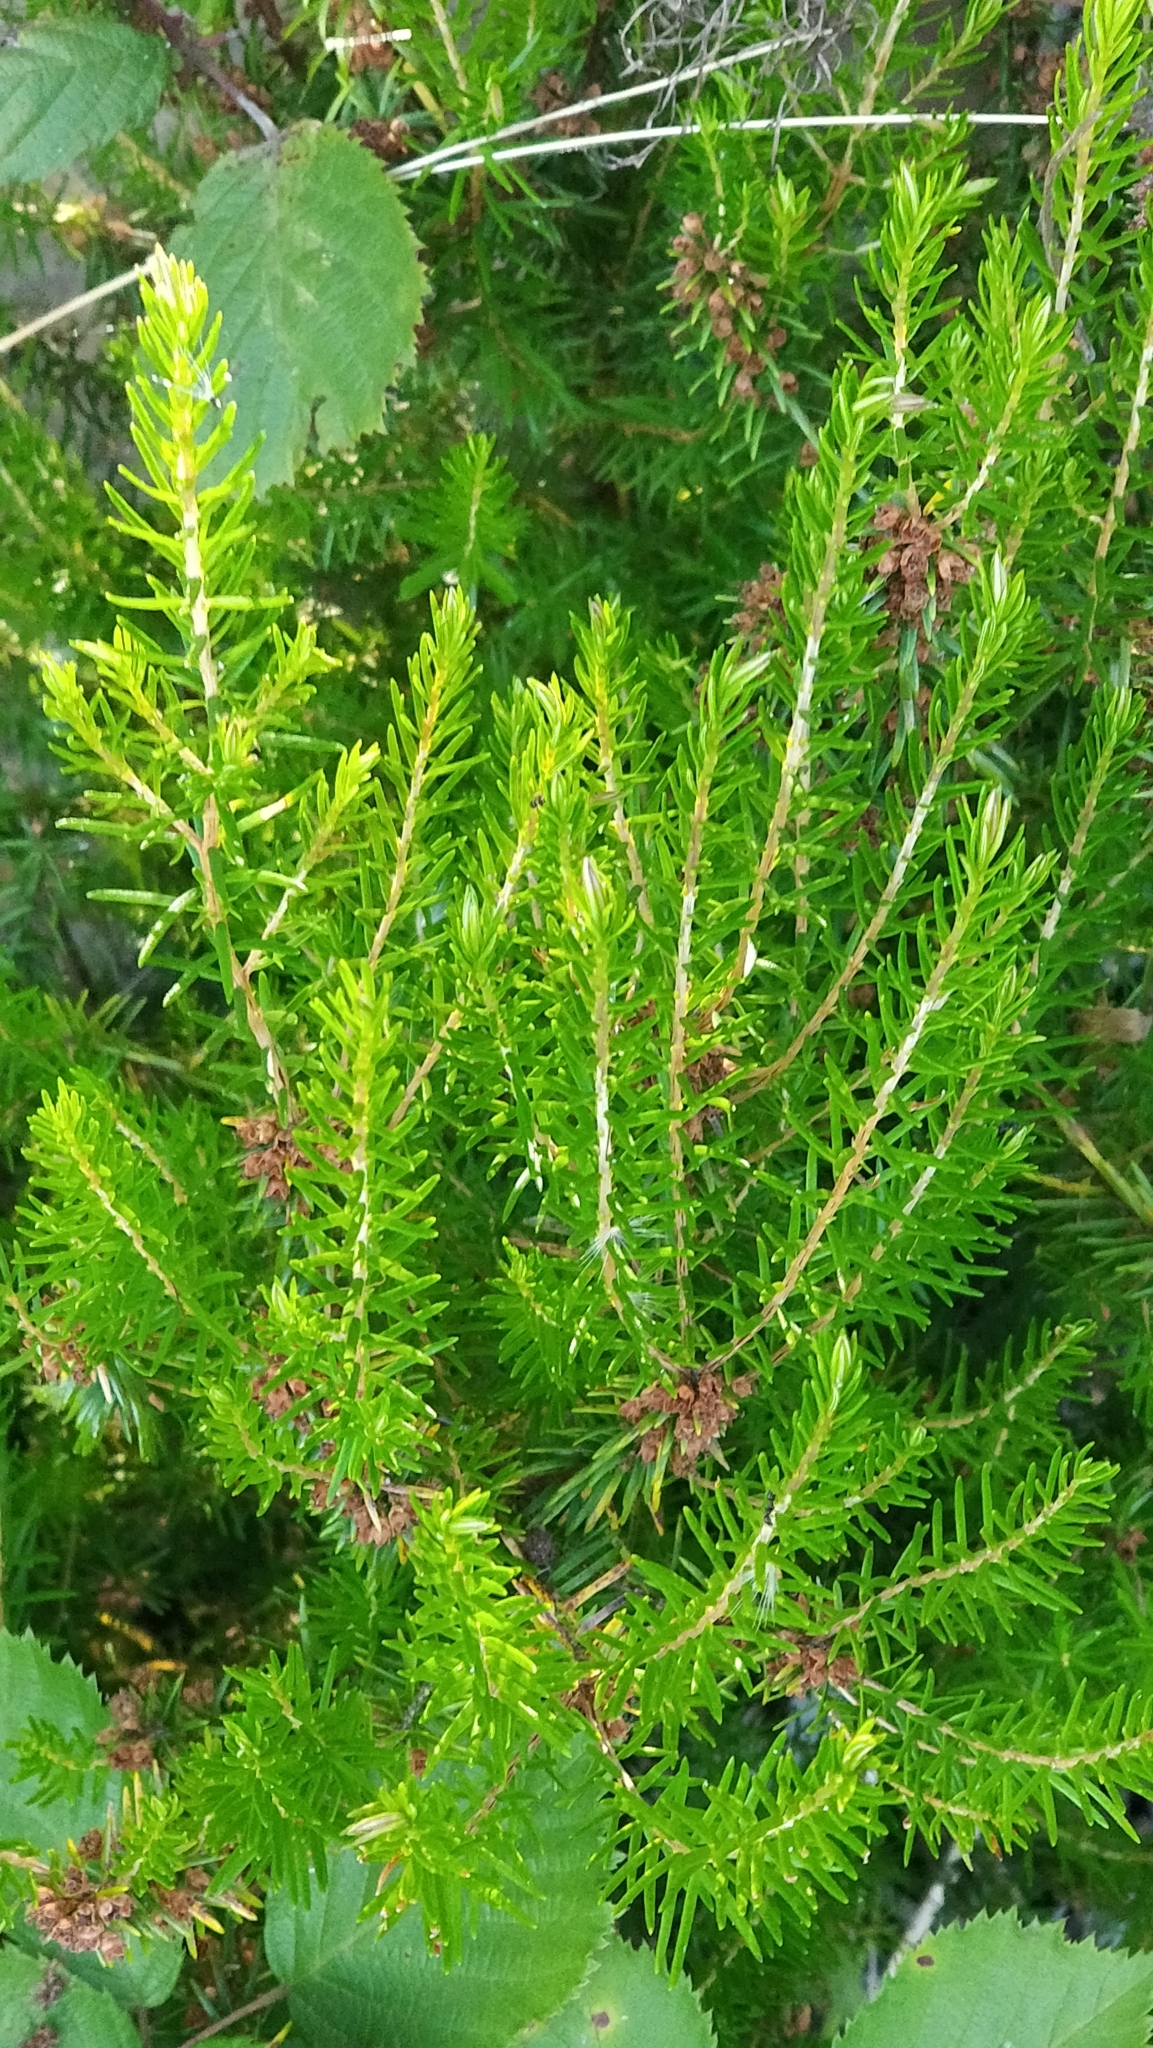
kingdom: Plantae
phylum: Tracheophyta
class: Magnoliopsida
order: Ericales
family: Ericaceae
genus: Erica
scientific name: Erica platycodon
